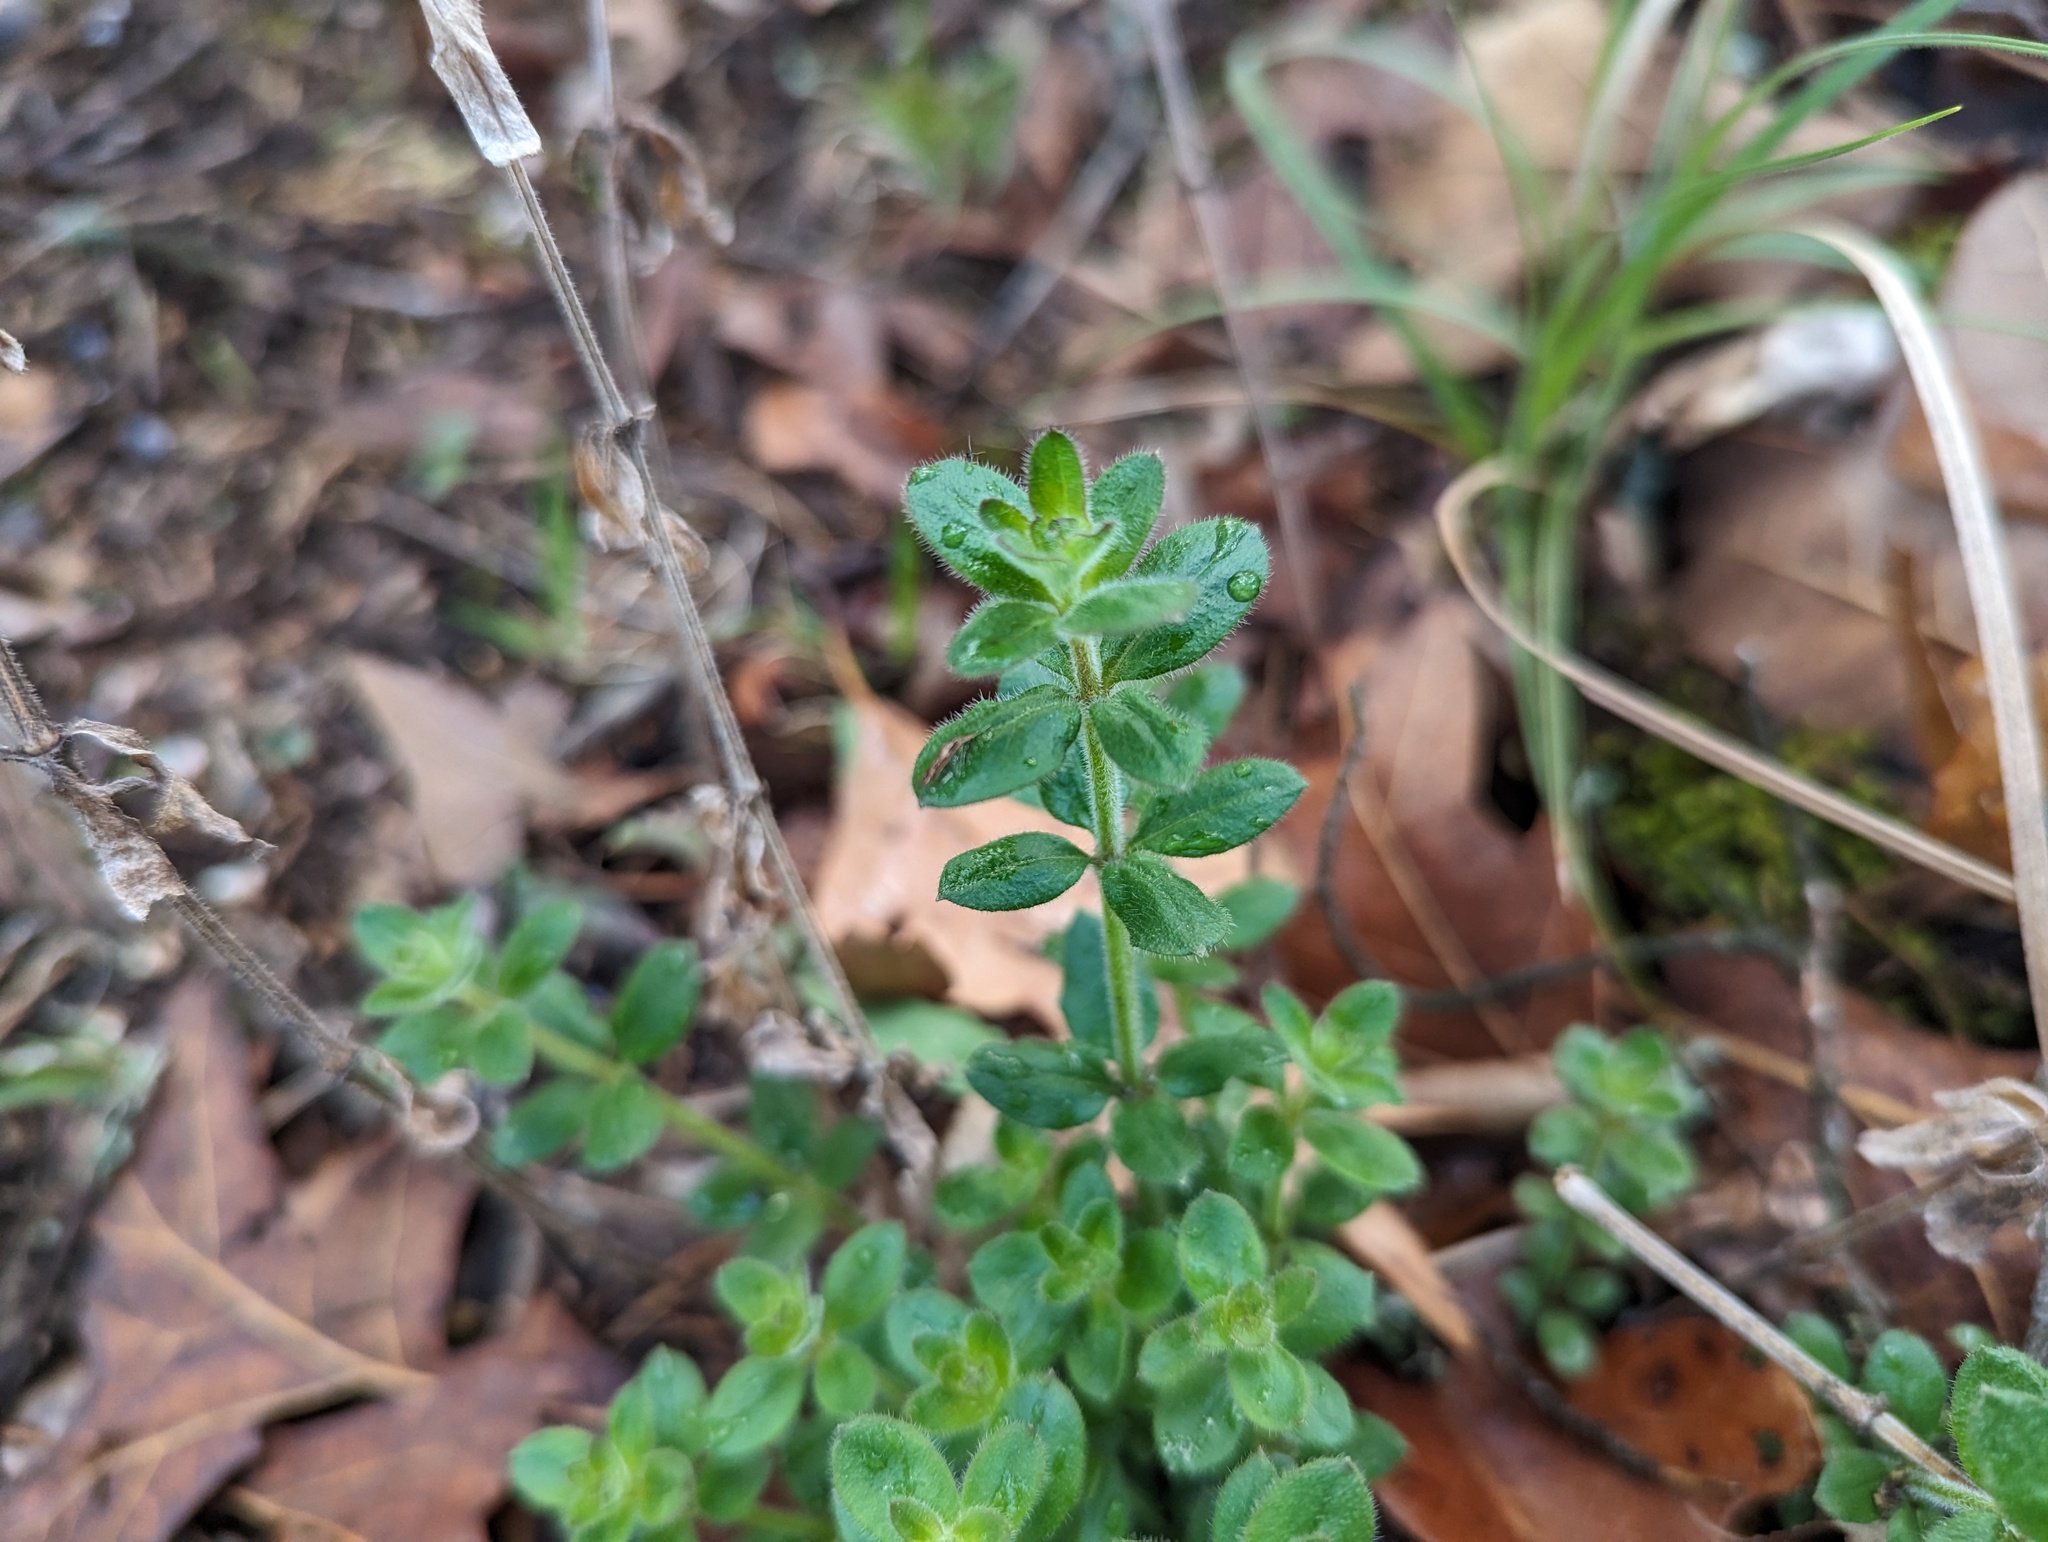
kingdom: Plantae
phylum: Tracheophyta
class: Magnoliopsida
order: Gentianales
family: Rubiaceae
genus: Galium
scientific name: Galium pilosum
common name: Hairy bedstraw
